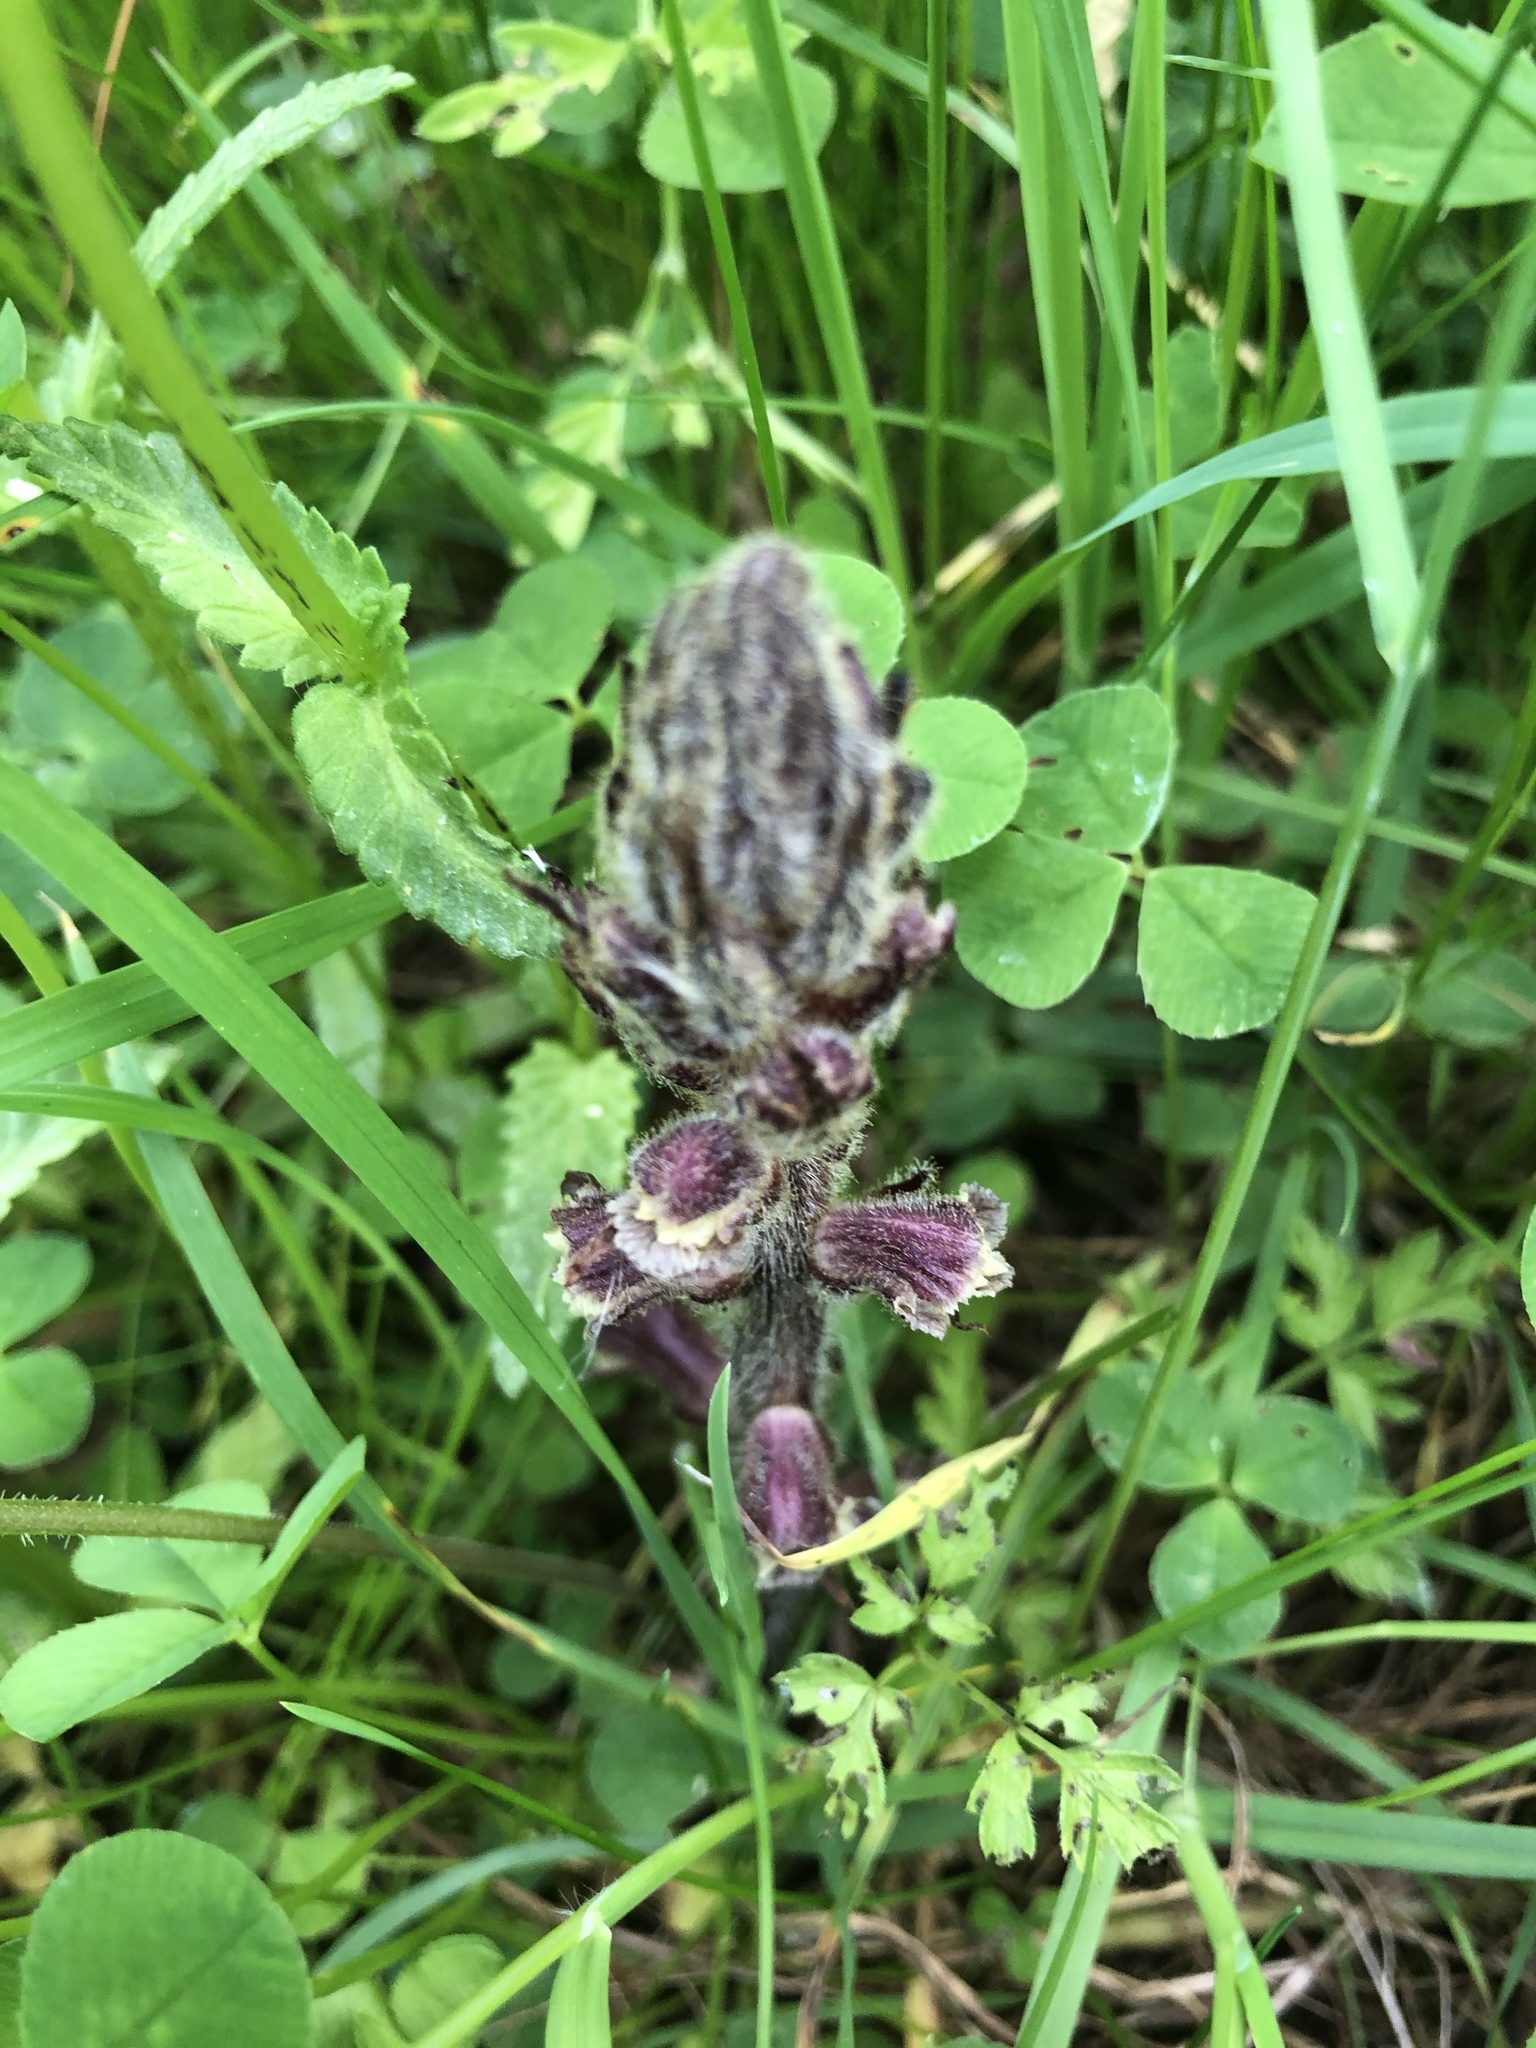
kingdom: Plantae
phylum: Tracheophyta
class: Magnoliopsida
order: Lamiales
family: Orobanchaceae
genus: Orobanche
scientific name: Orobanche minor
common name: Common broomrape
